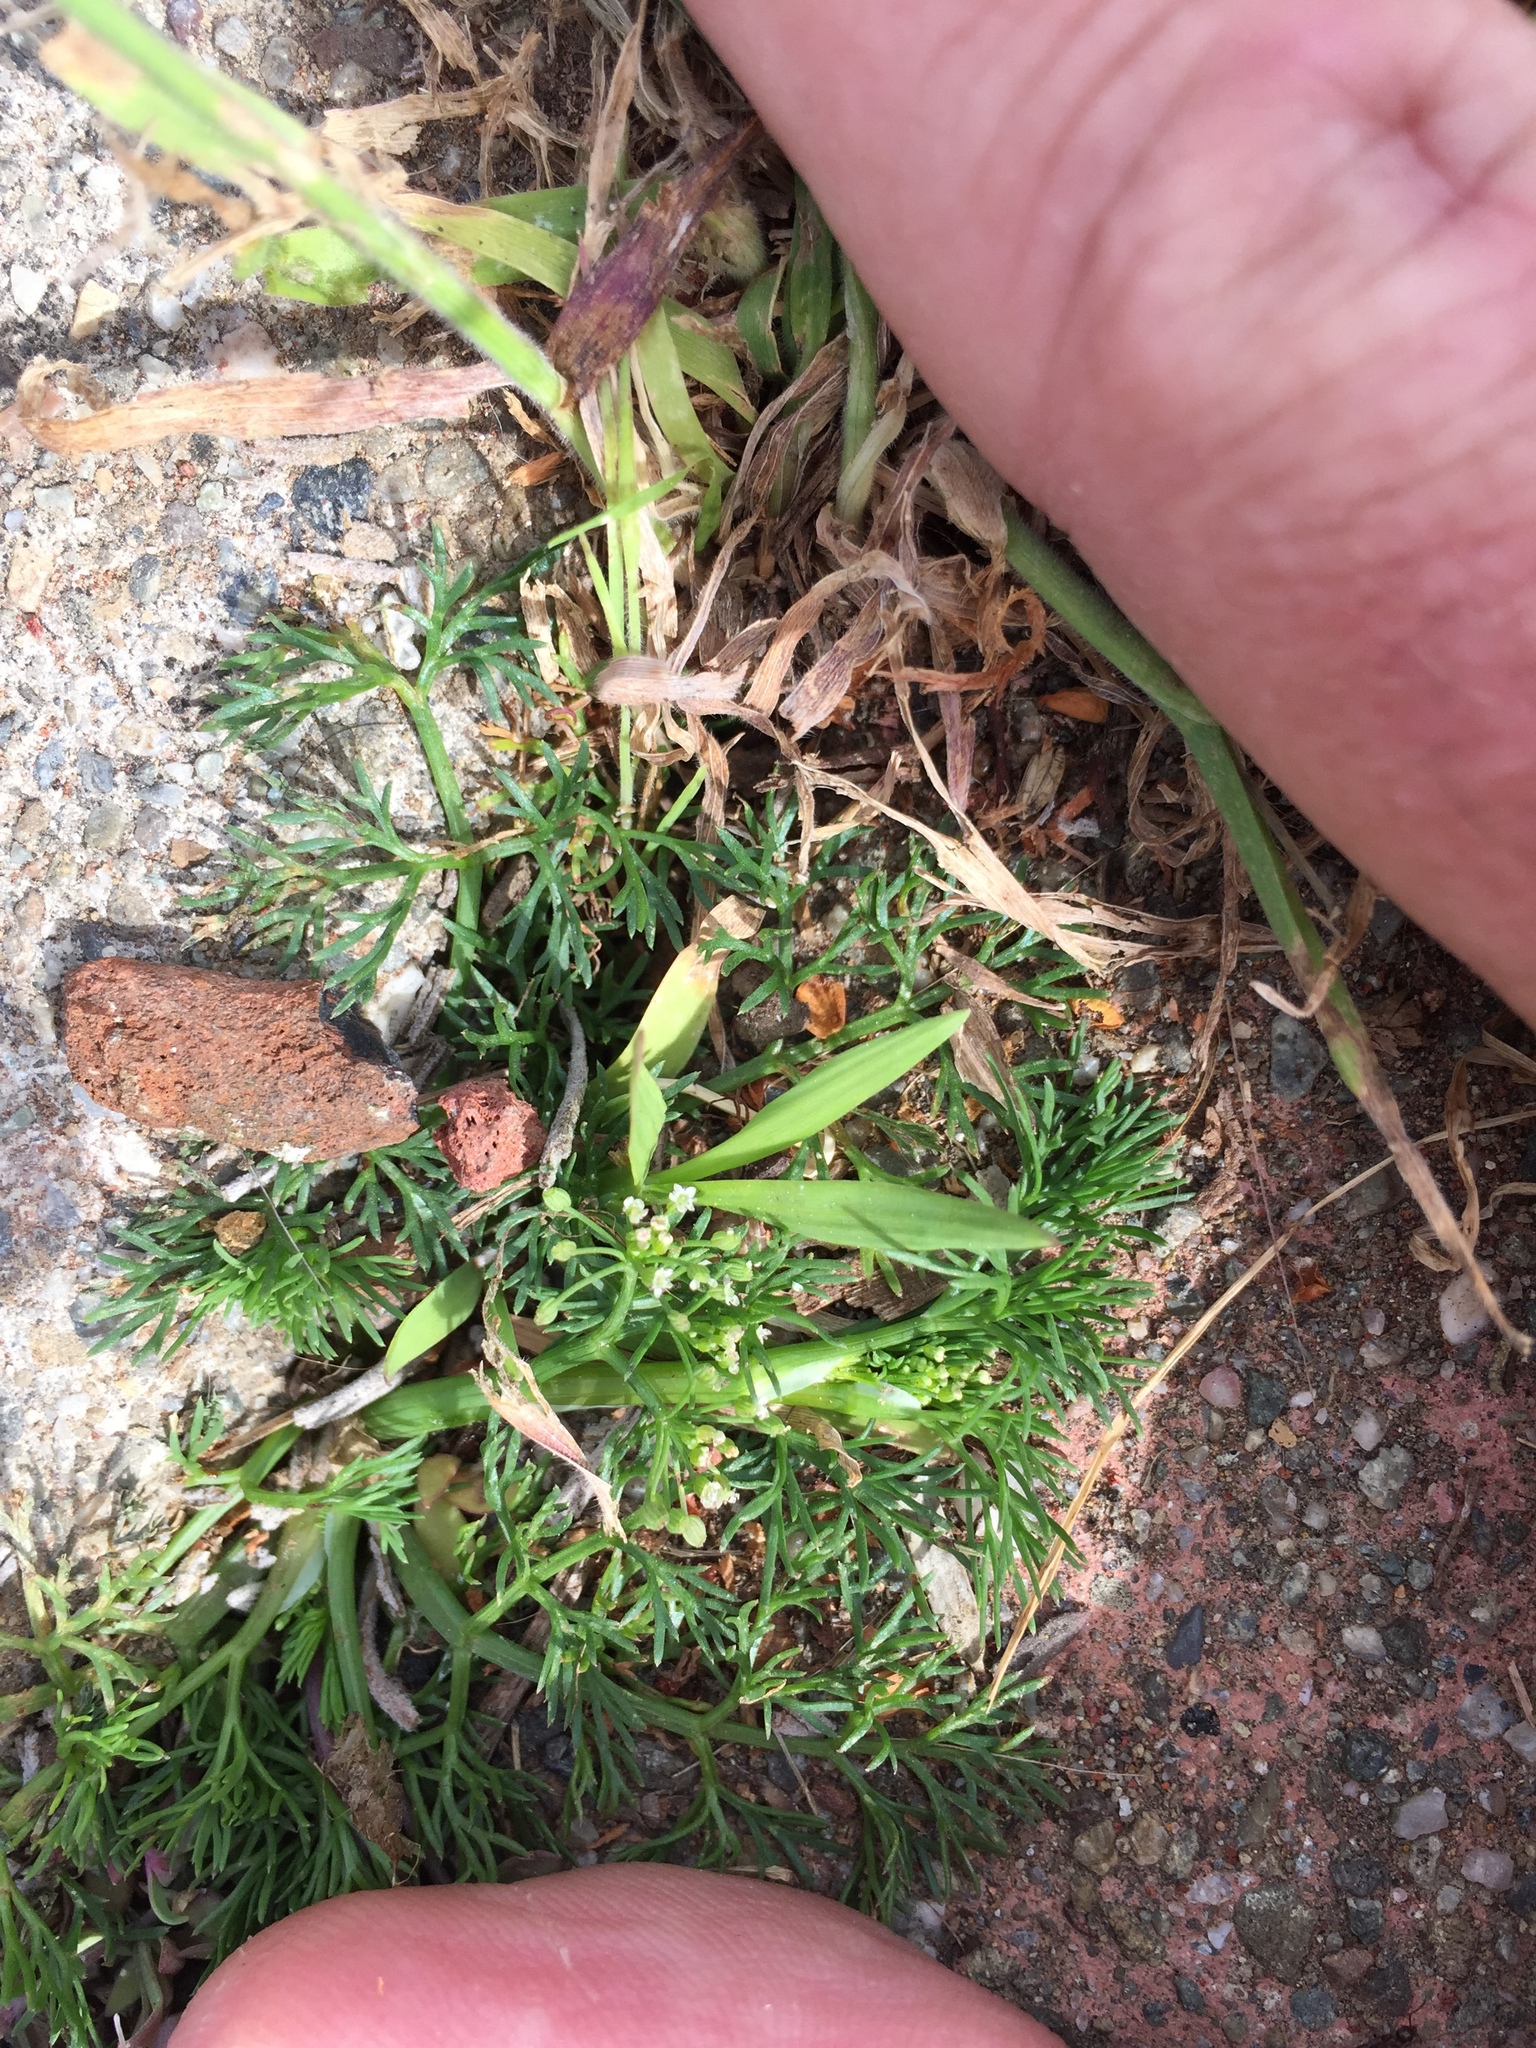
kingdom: Plantae
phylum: Tracheophyta
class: Magnoliopsida
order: Apiales
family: Apiaceae
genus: Cyclospermum
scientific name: Cyclospermum leptophyllum
